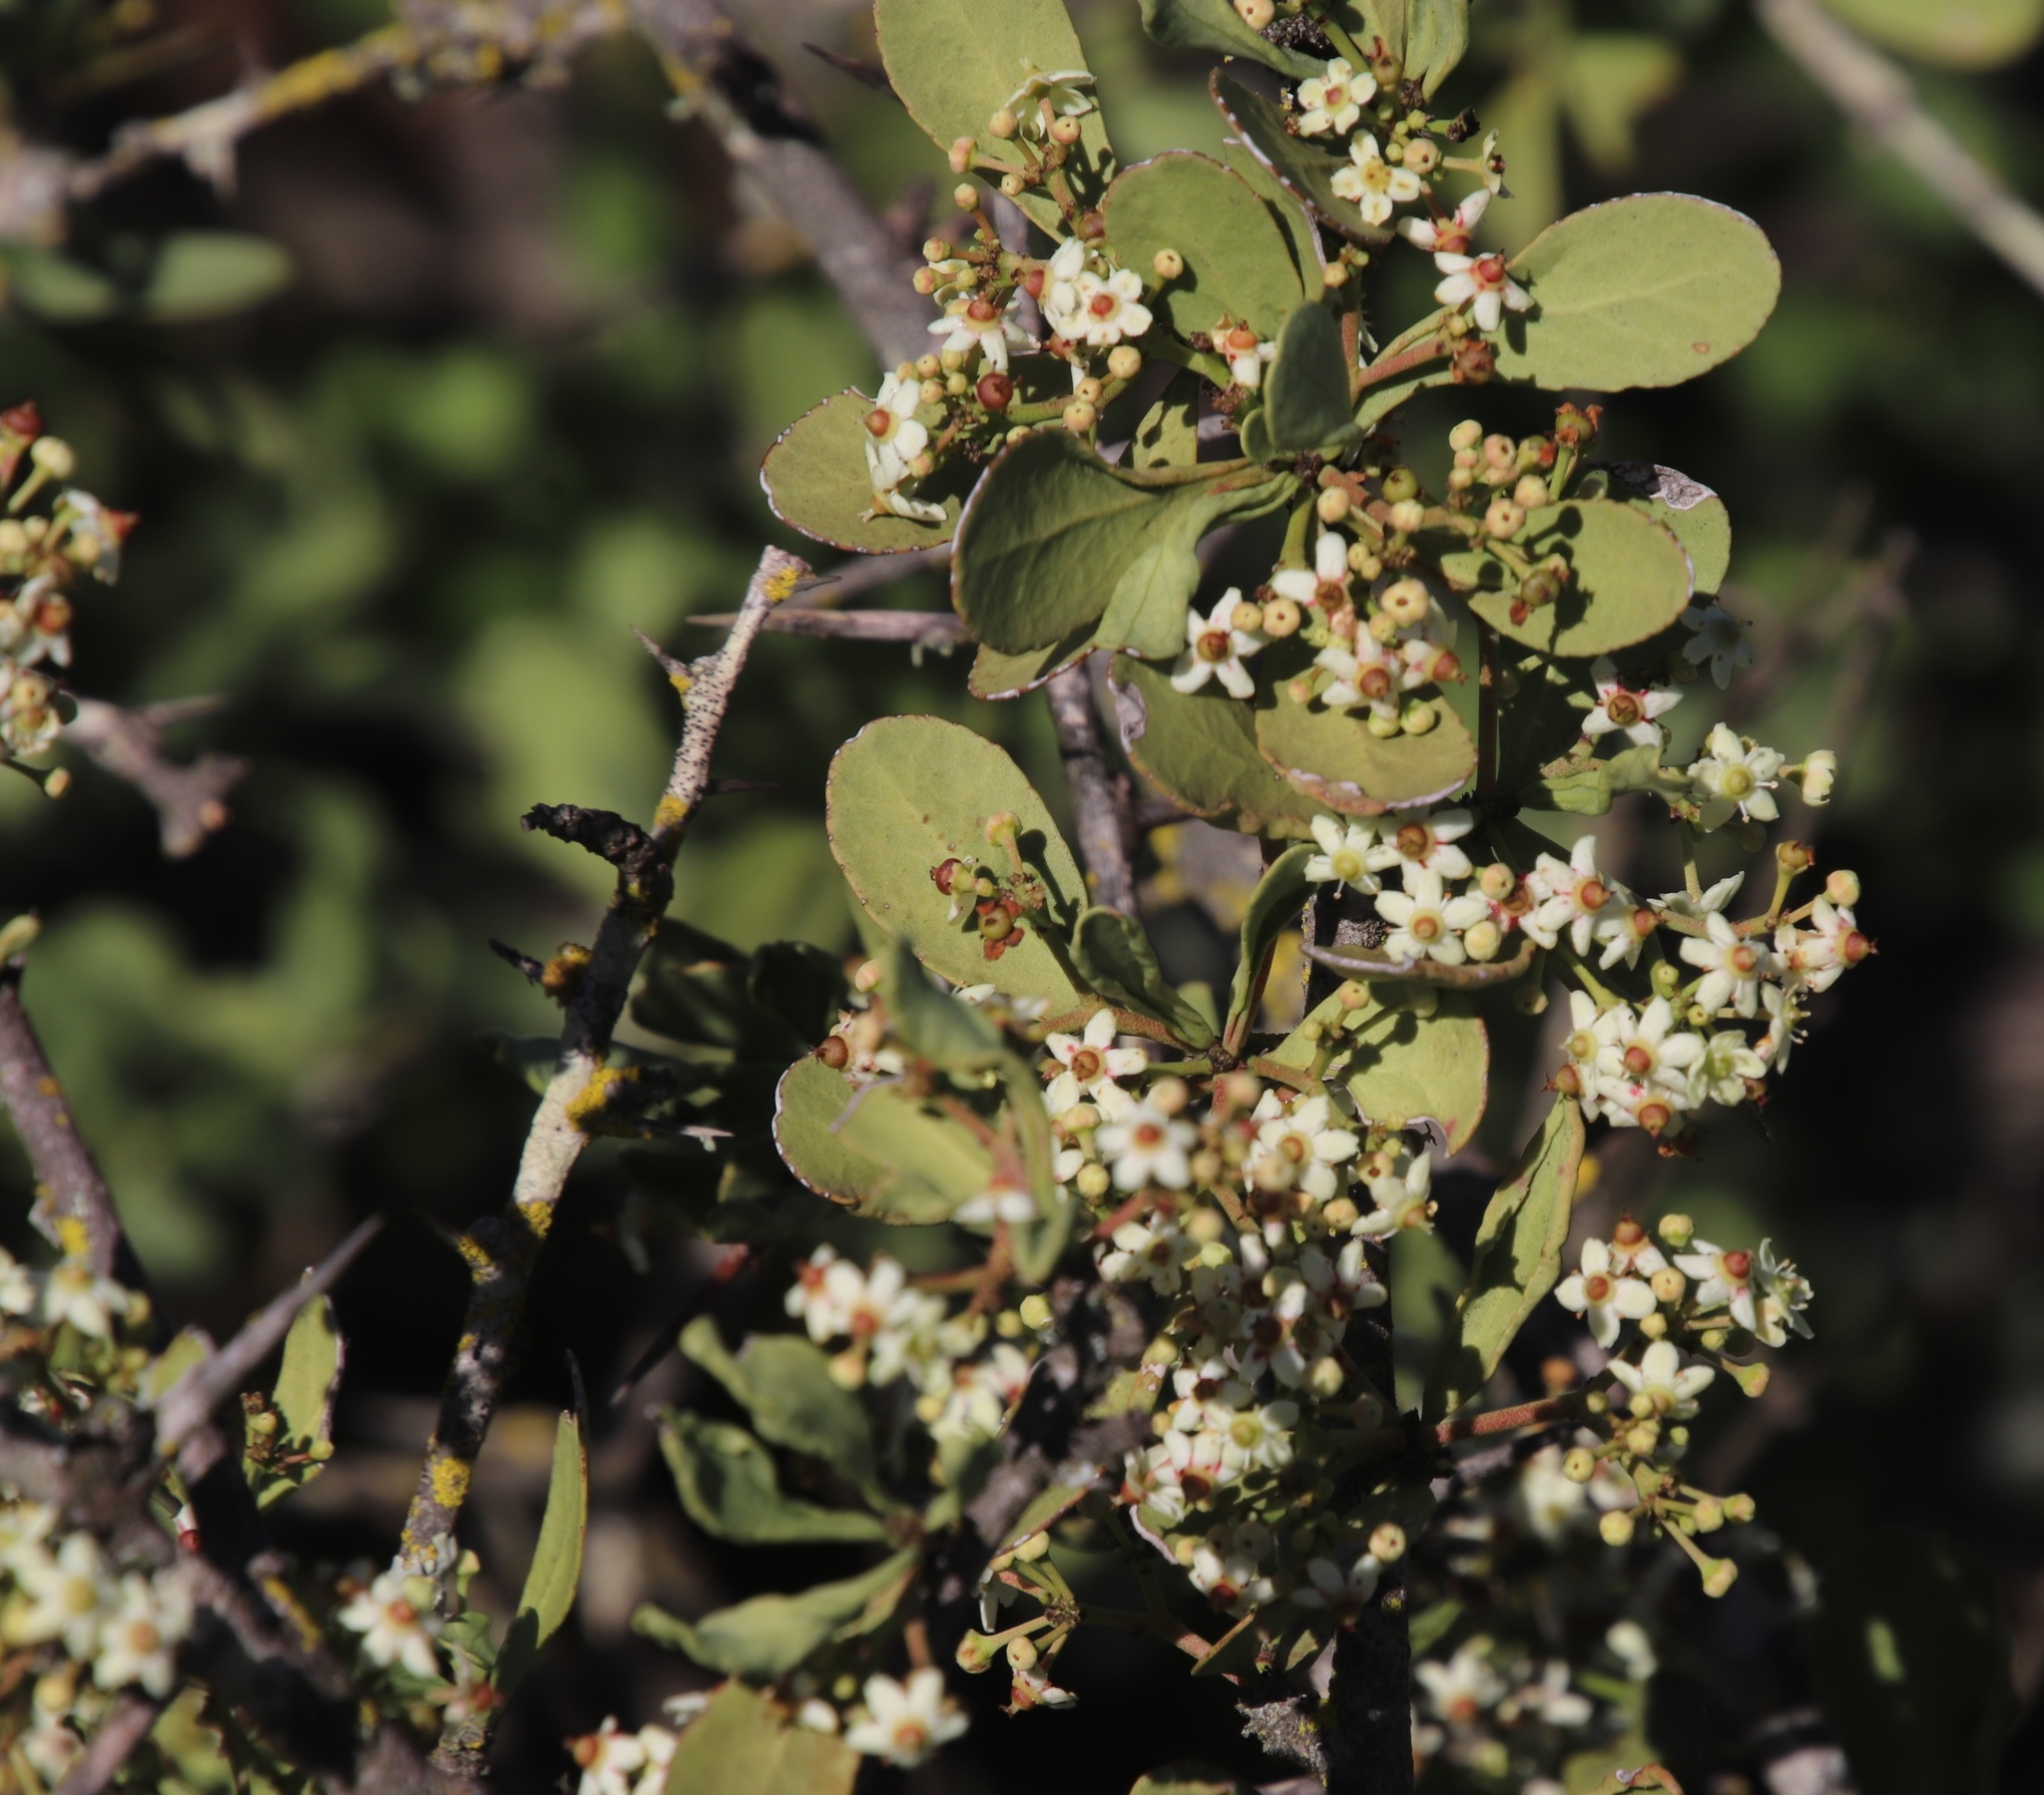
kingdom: Plantae
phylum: Tracheophyta
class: Magnoliopsida
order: Celastrales
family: Celastraceae
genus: Gymnosporia
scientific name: Gymnosporia buxifolia
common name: Common spike-thorn
